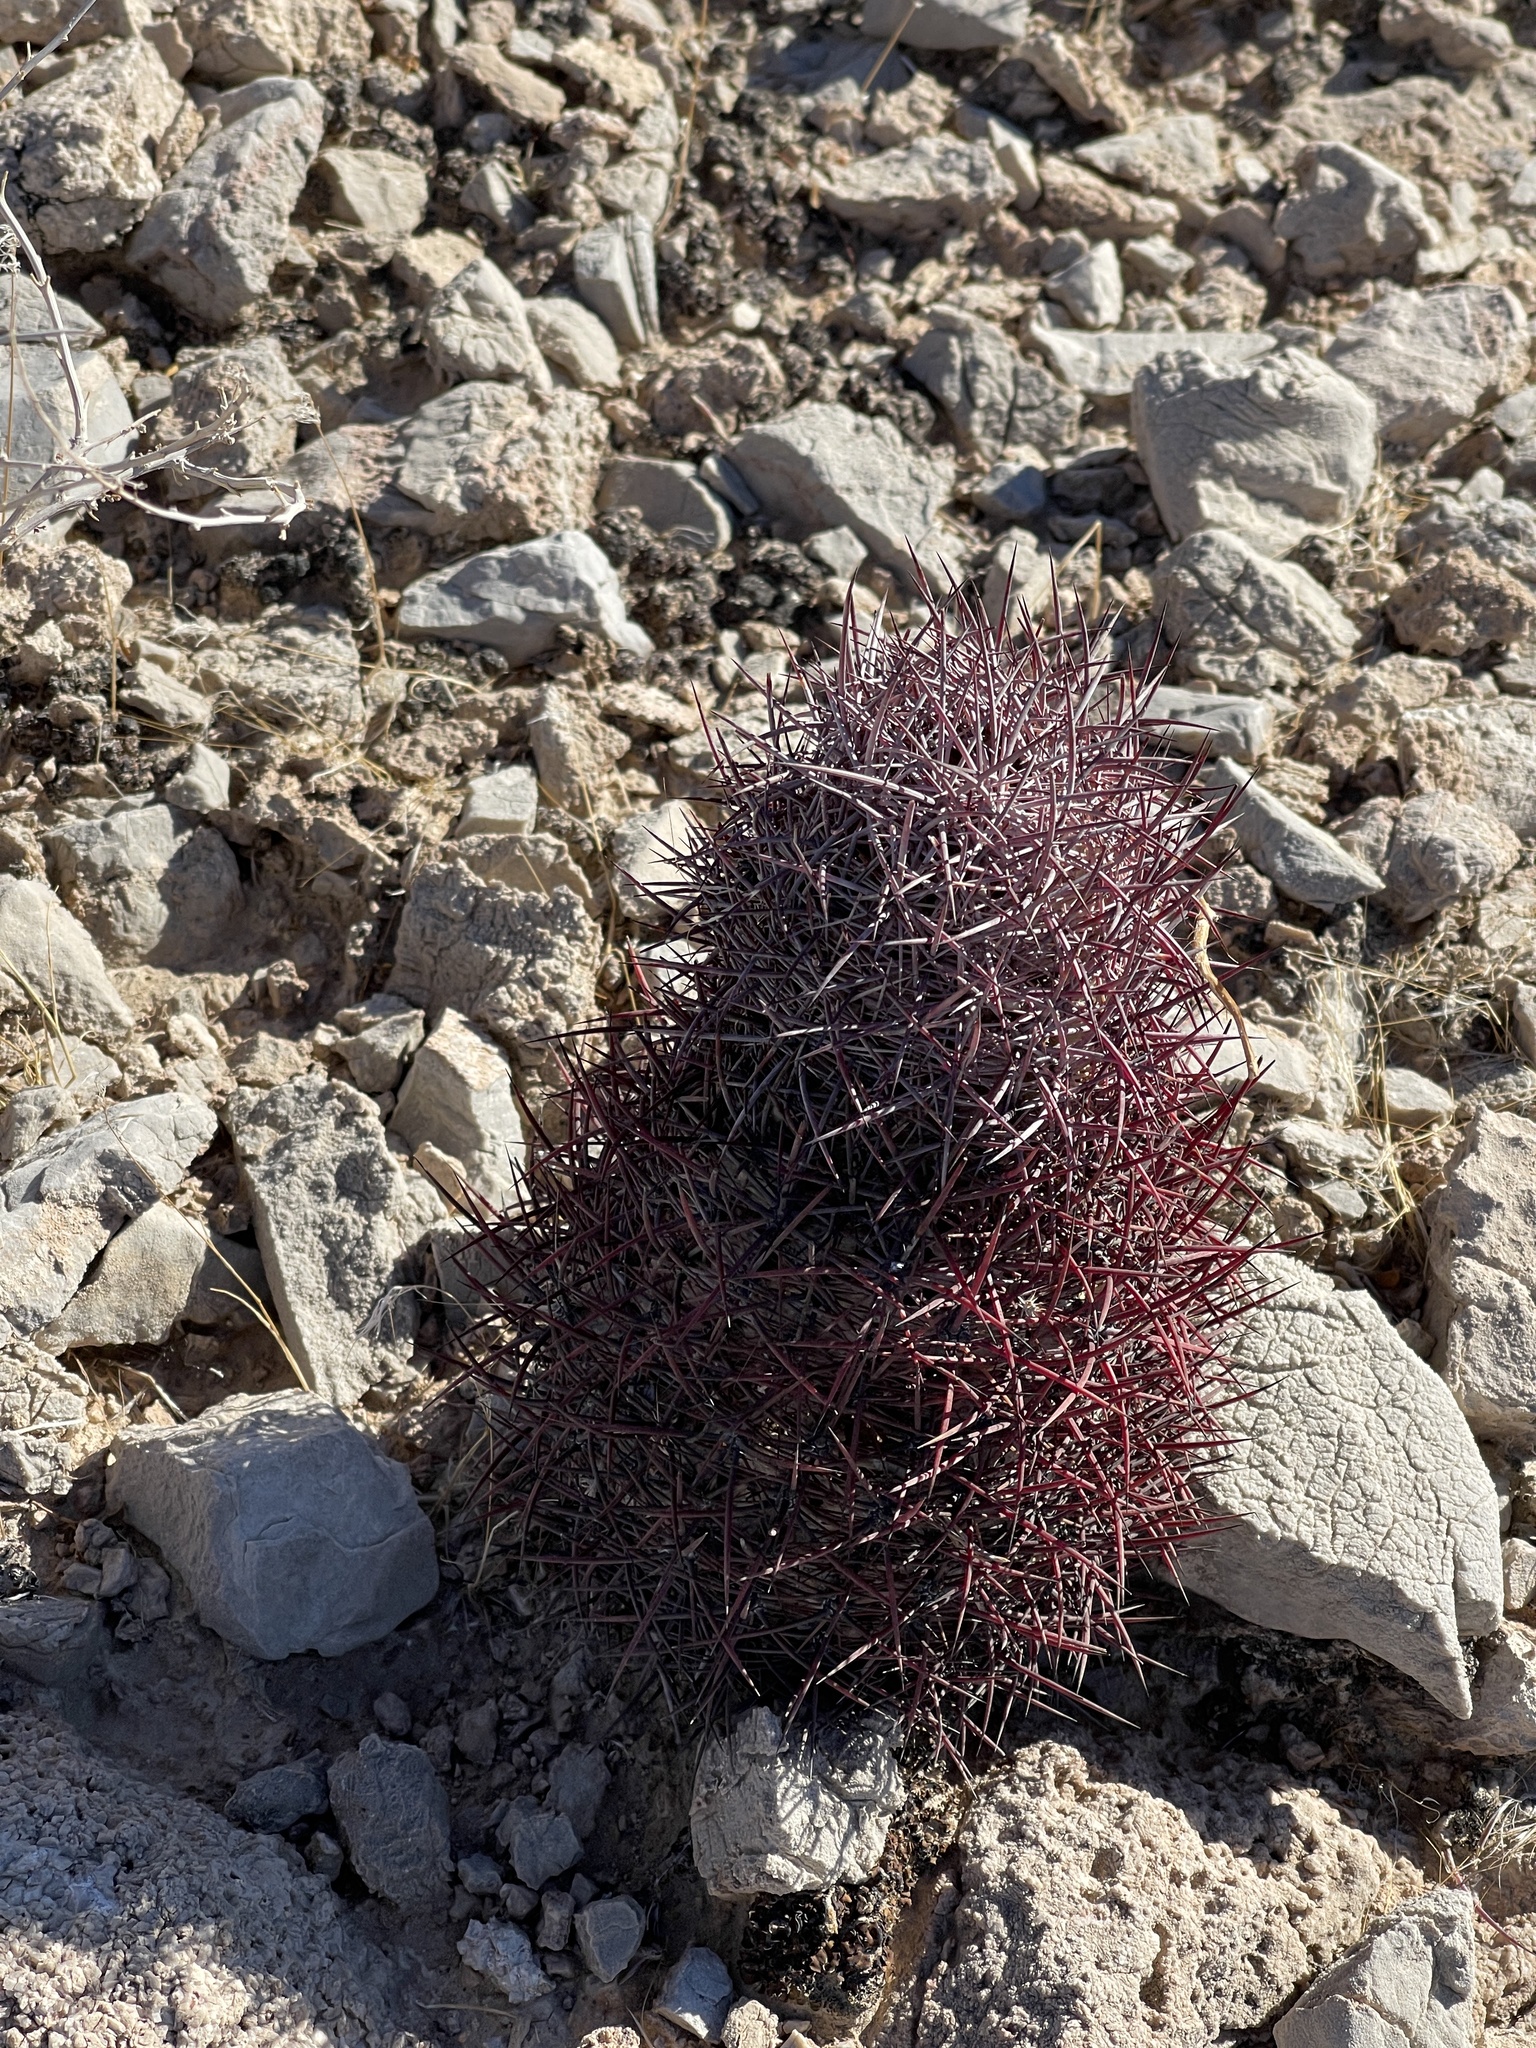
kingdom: Plantae
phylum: Tracheophyta
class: Magnoliopsida
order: Caryophyllales
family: Cactaceae
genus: Sclerocactus
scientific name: Sclerocactus johnsonii
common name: Eight-spine fishhook cactus
